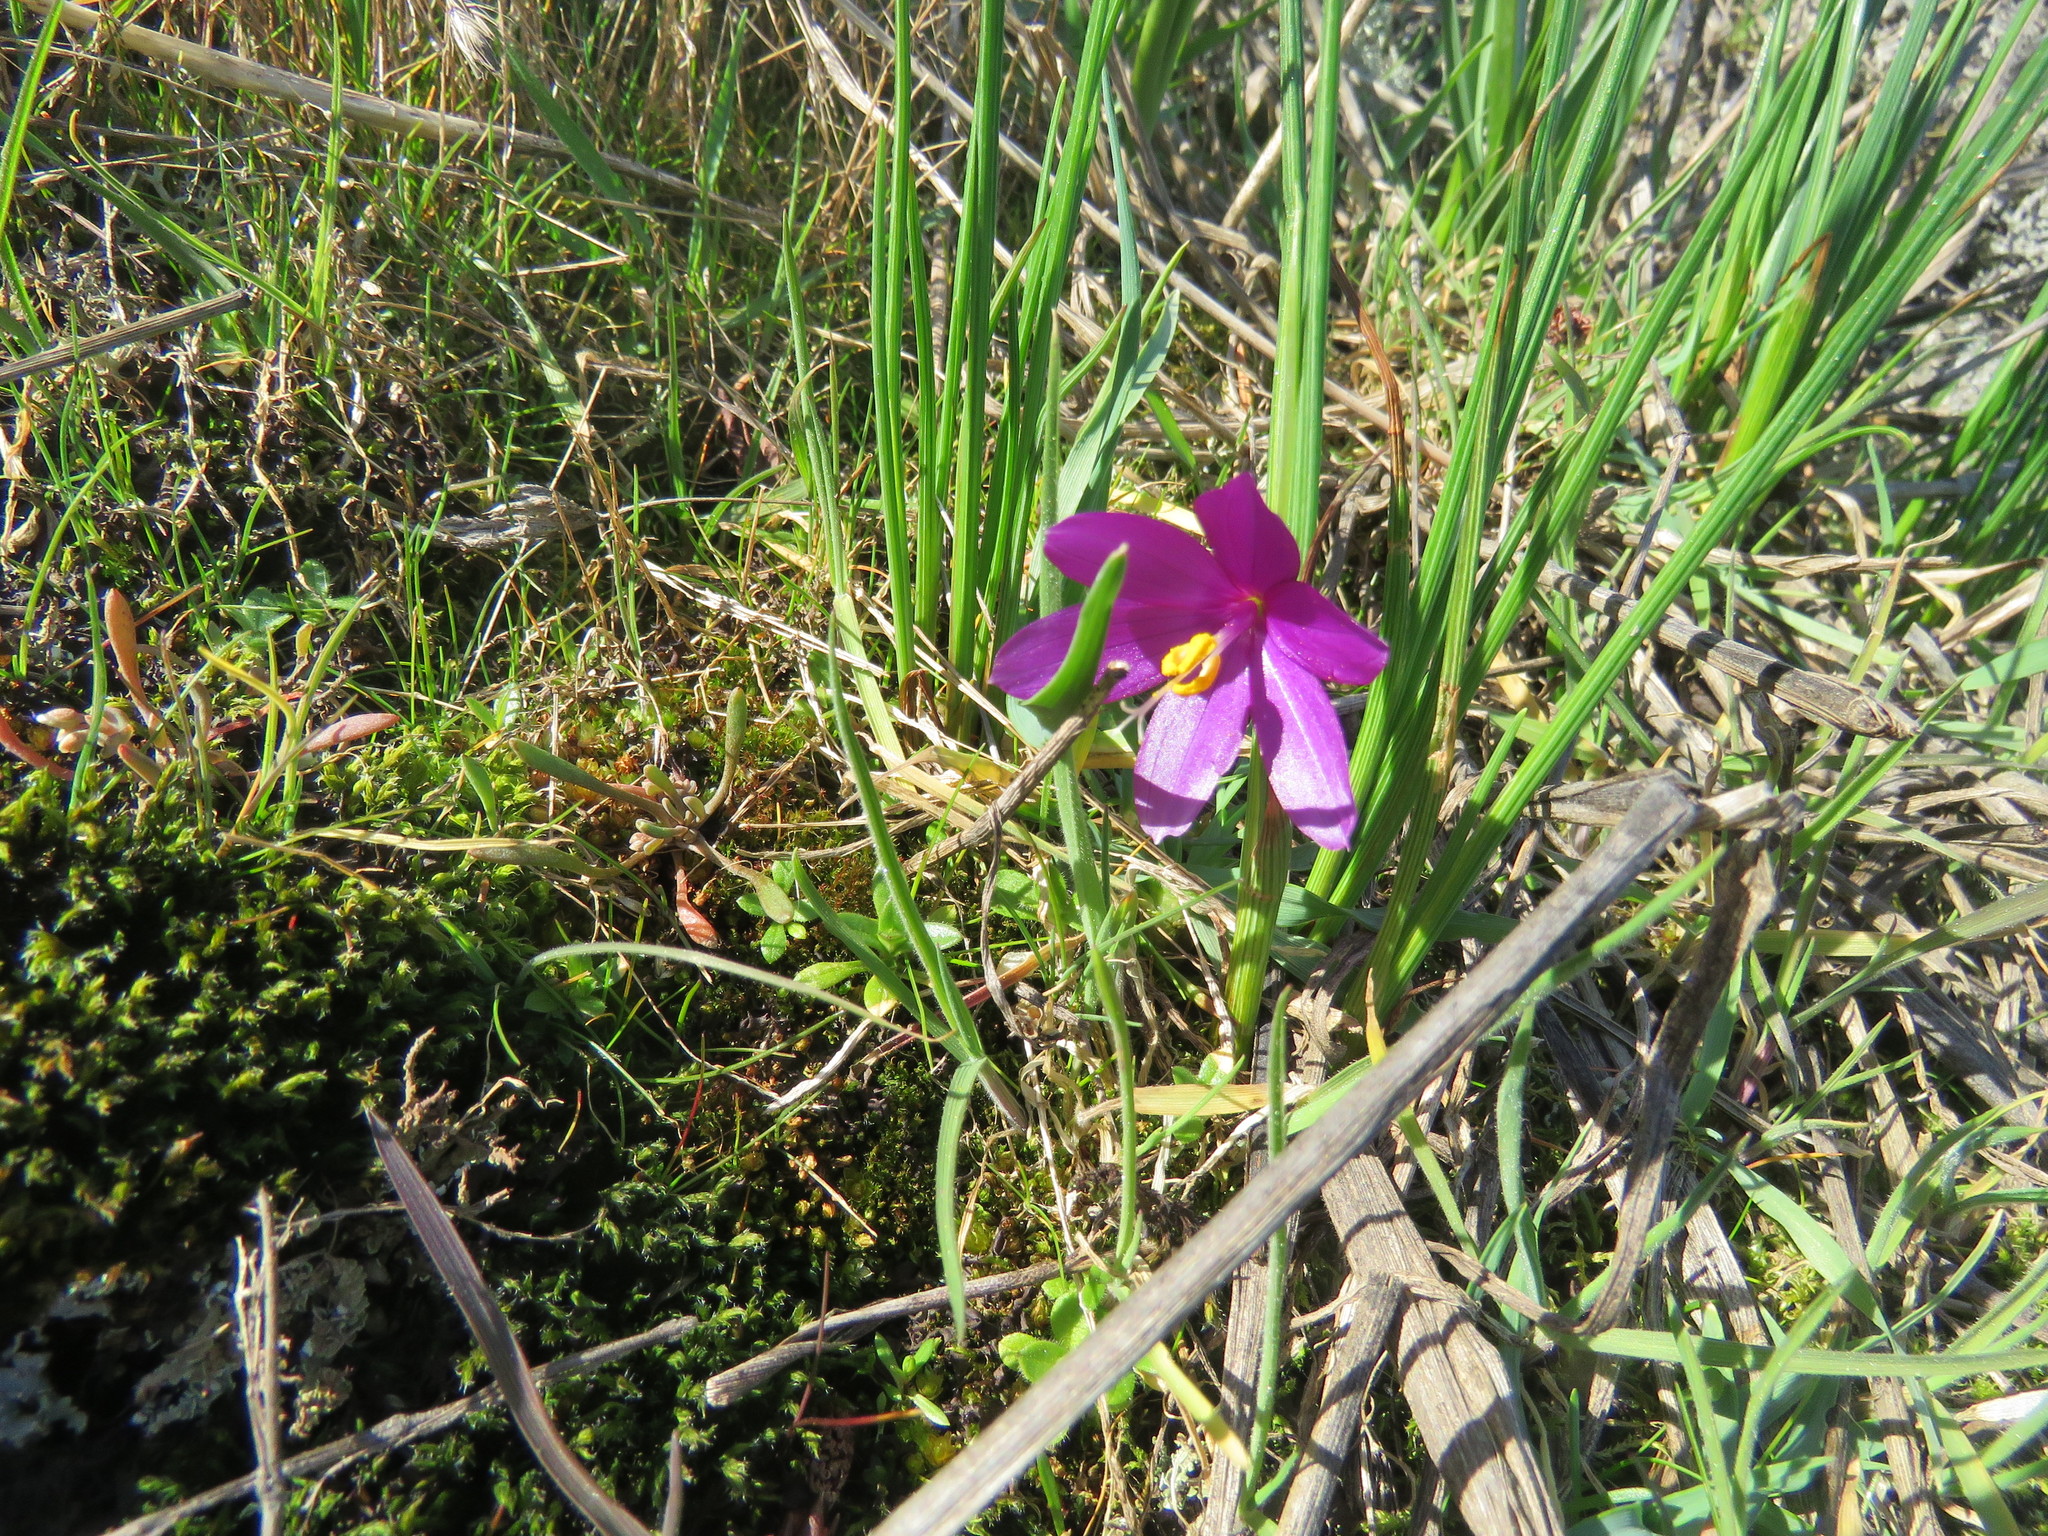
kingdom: Plantae
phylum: Tracheophyta
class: Liliopsida
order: Asparagales
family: Iridaceae
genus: Olsynium
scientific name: Olsynium douglasii
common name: Douglas' grasswidow
